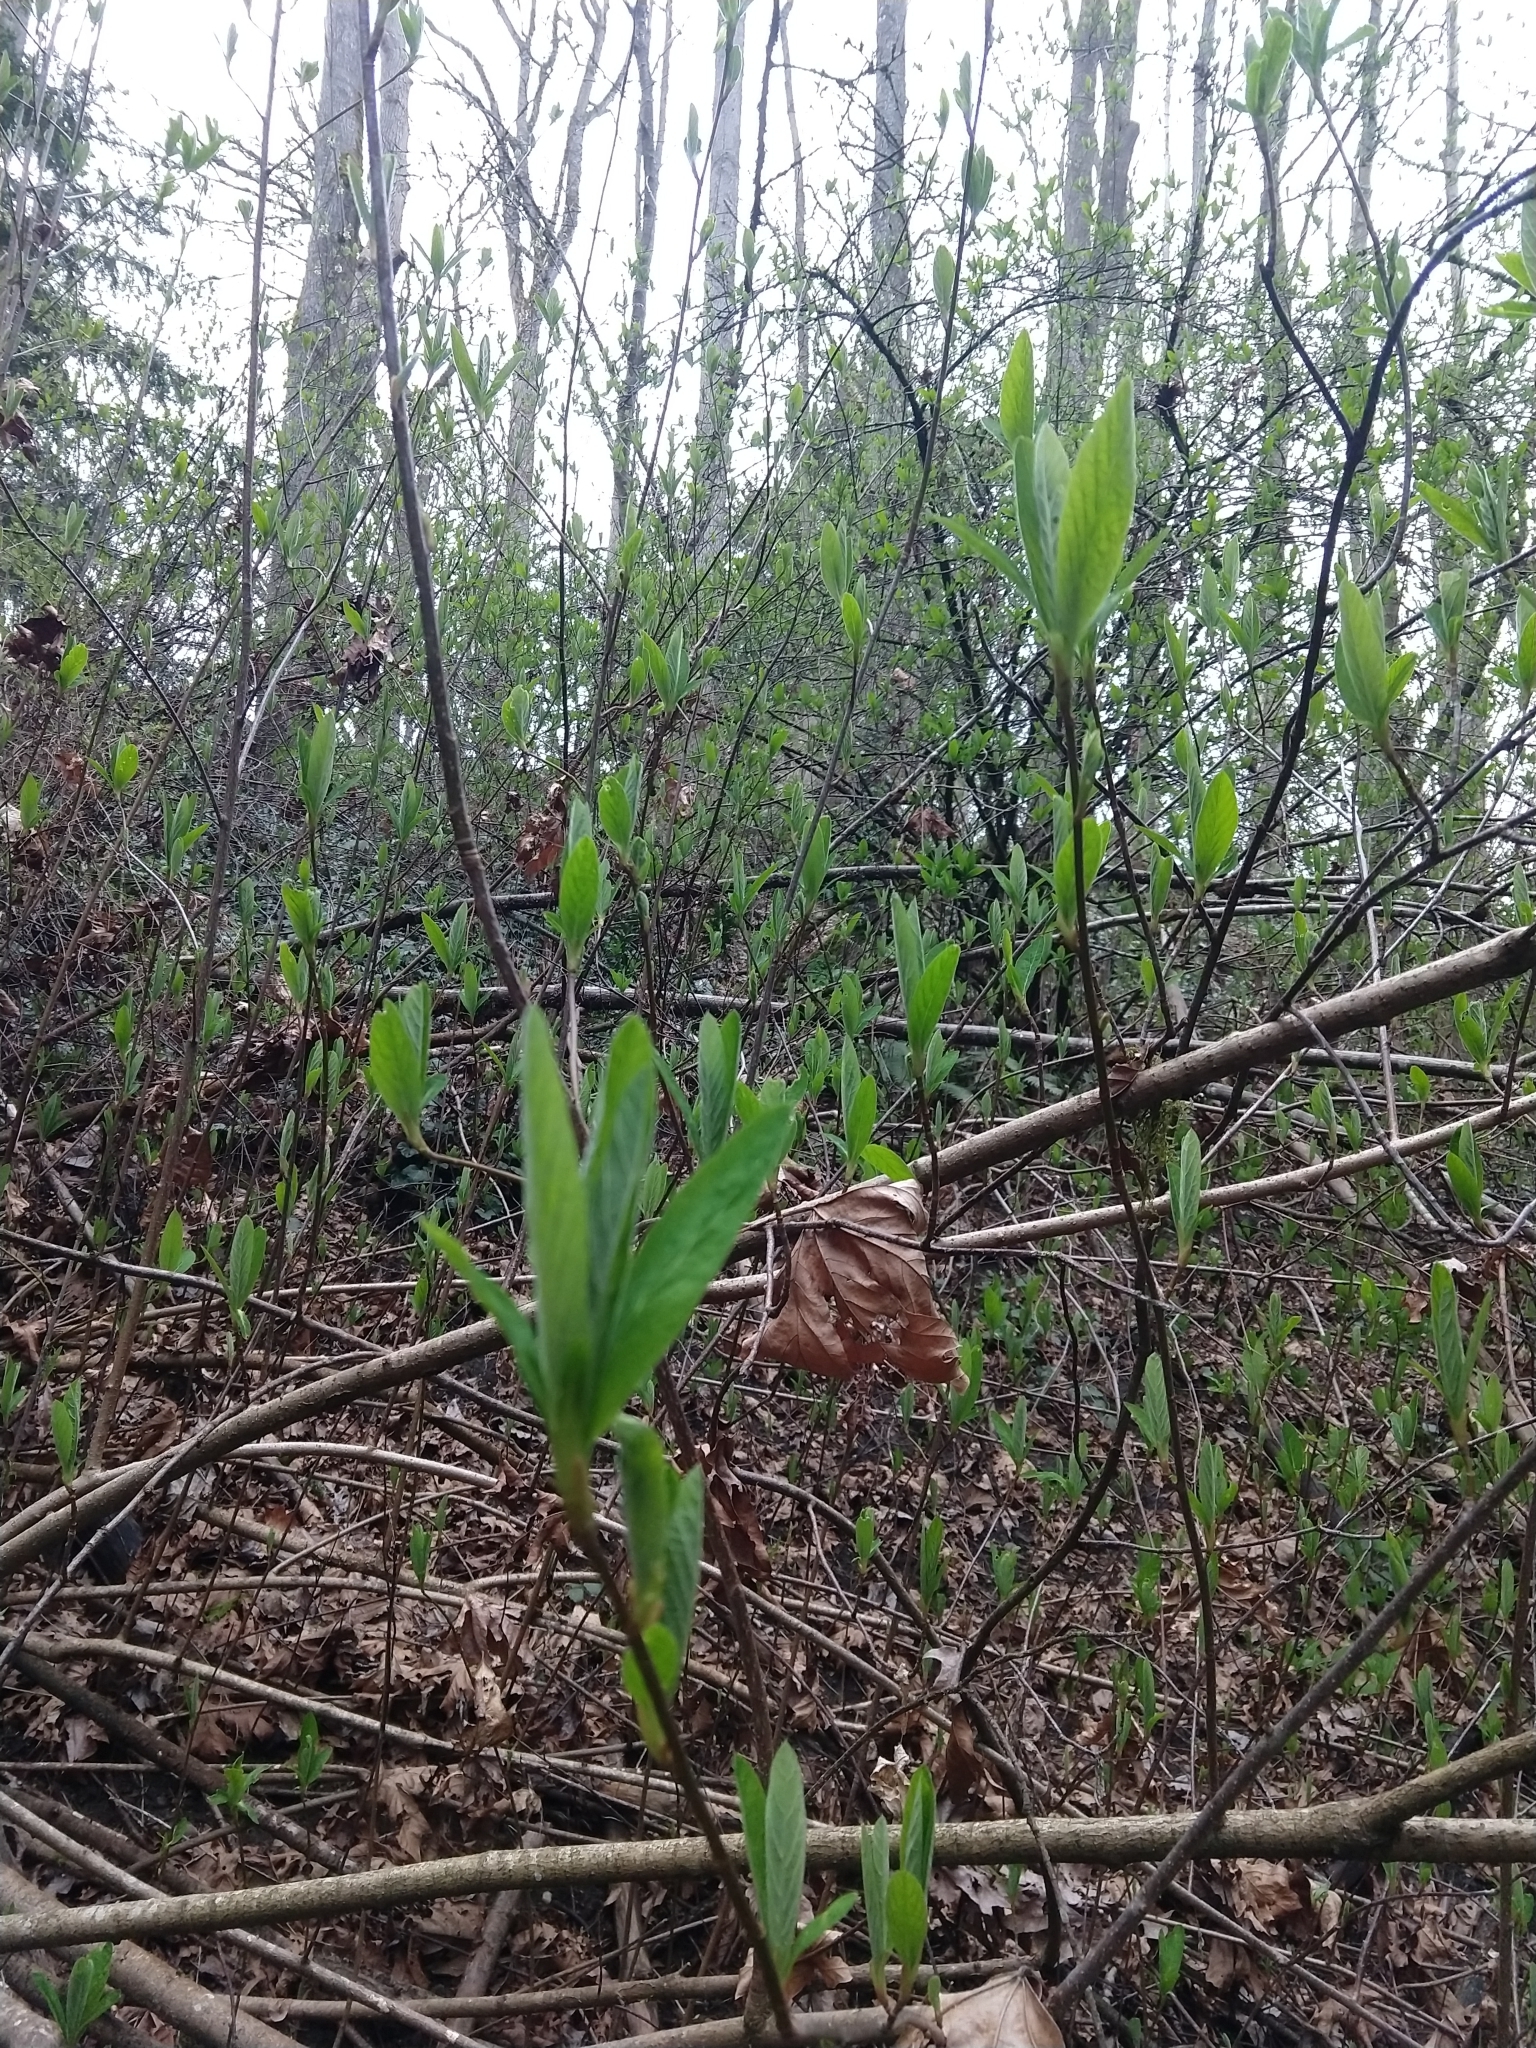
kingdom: Plantae
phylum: Tracheophyta
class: Magnoliopsida
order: Rosales
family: Rosaceae
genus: Oemleria
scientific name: Oemleria cerasiformis
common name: Osoberry
